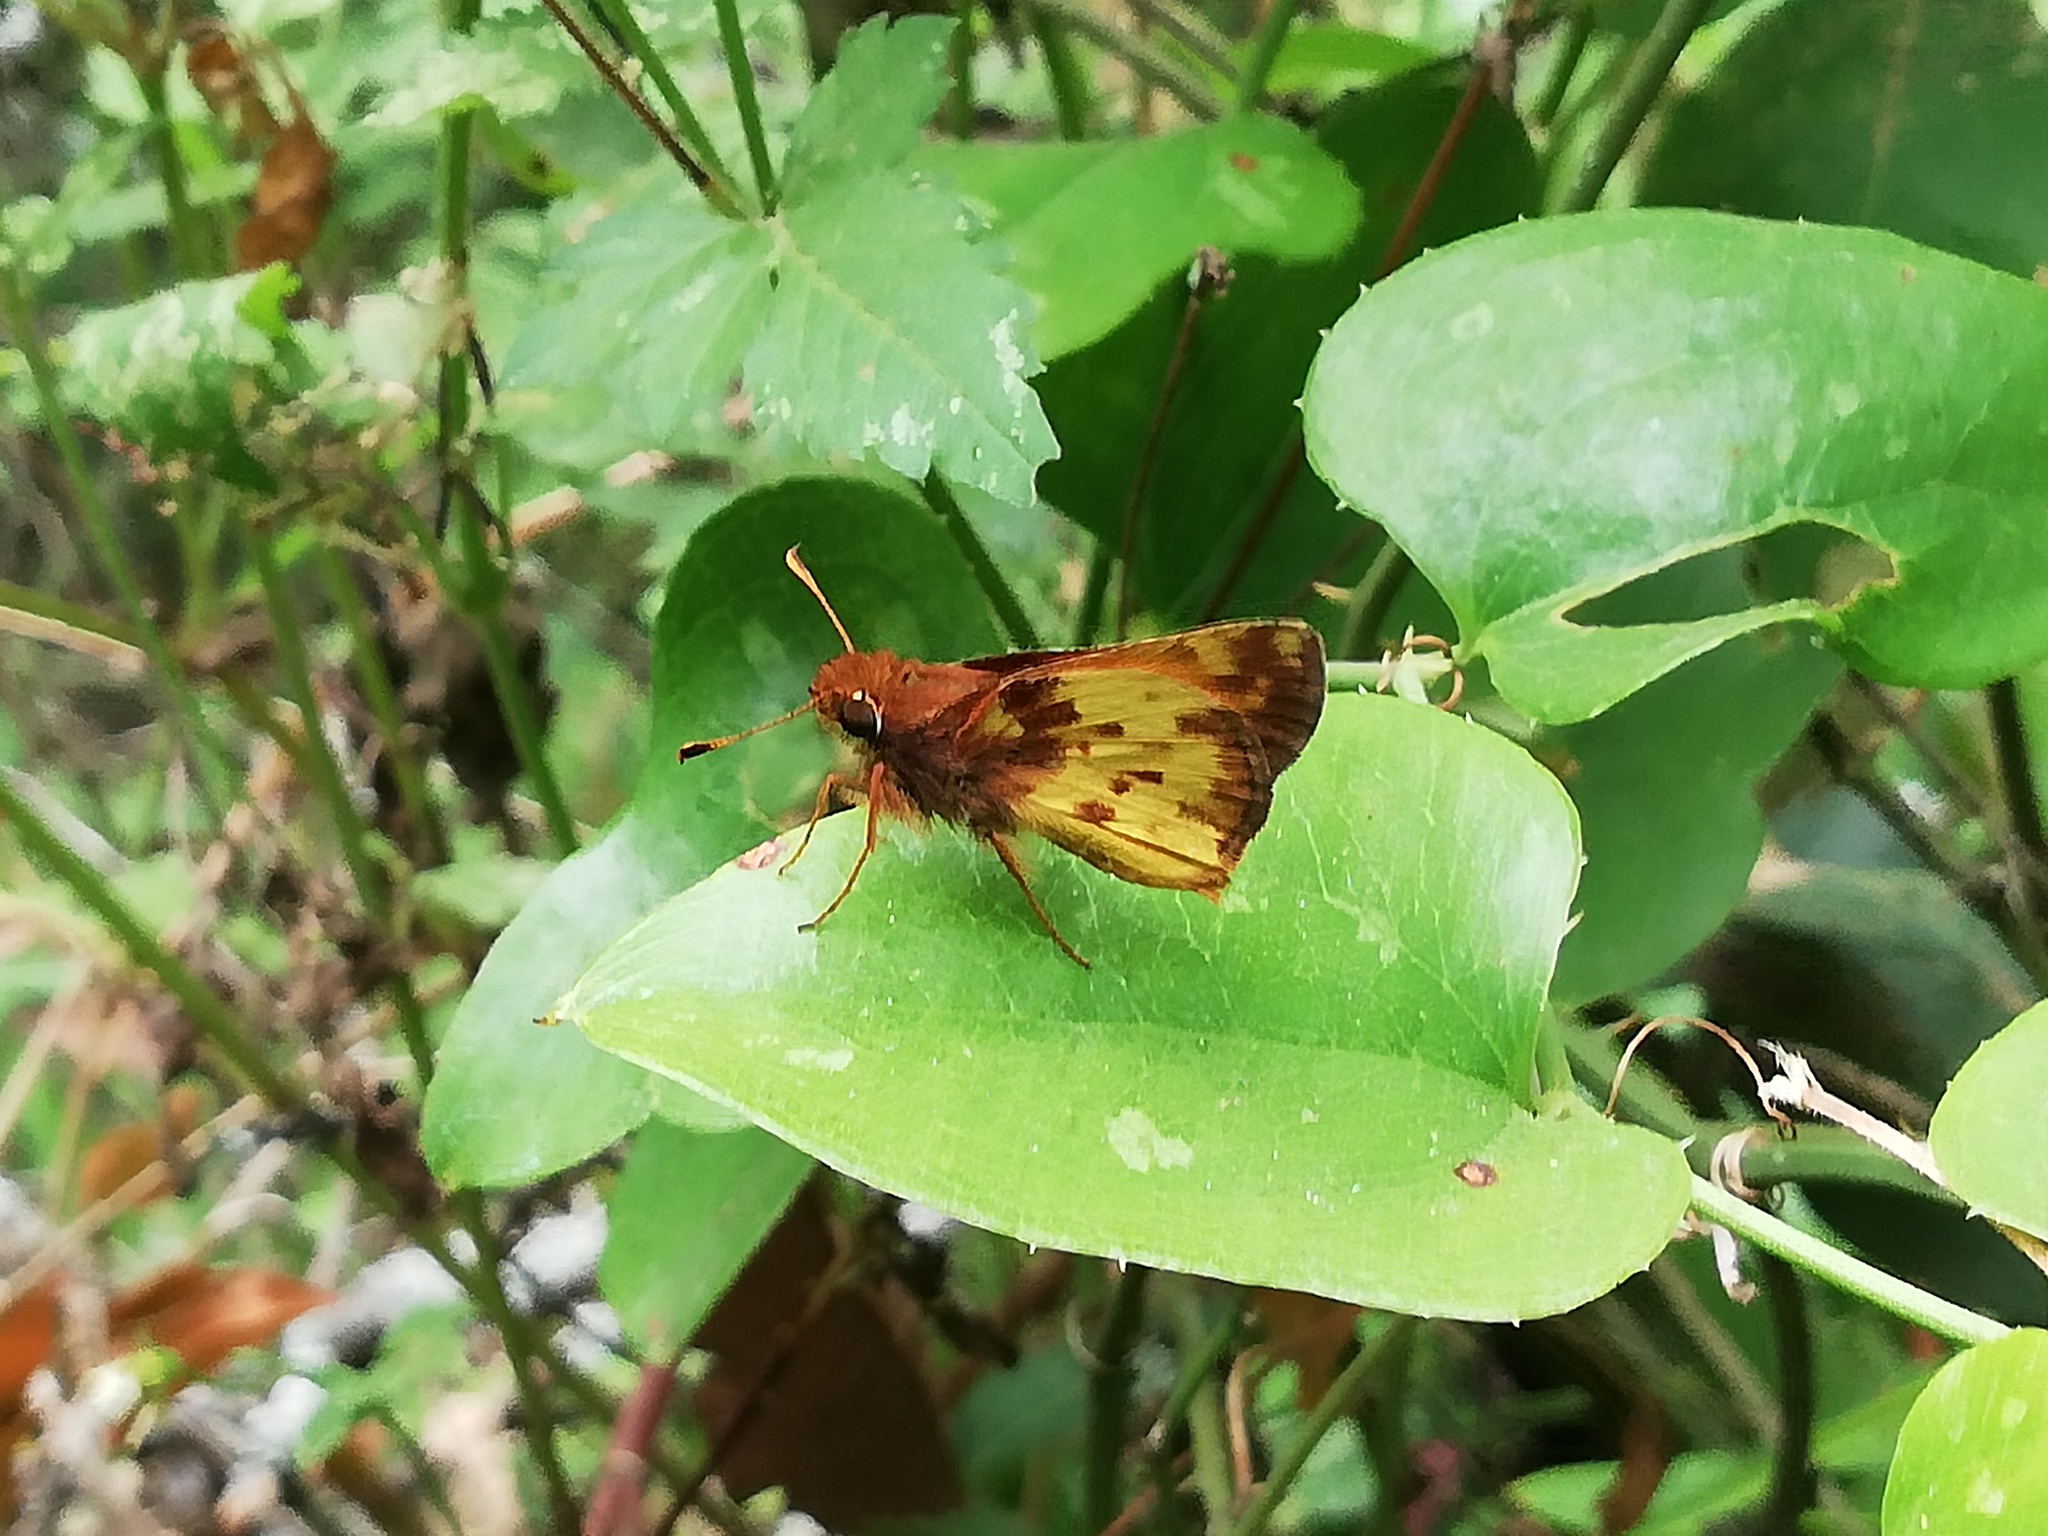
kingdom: Animalia
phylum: Arthropoda
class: Insecta
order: Lepidoptera
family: Hesperiidae
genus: Lon
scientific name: Lon zabulon
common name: Zabulon skipper
